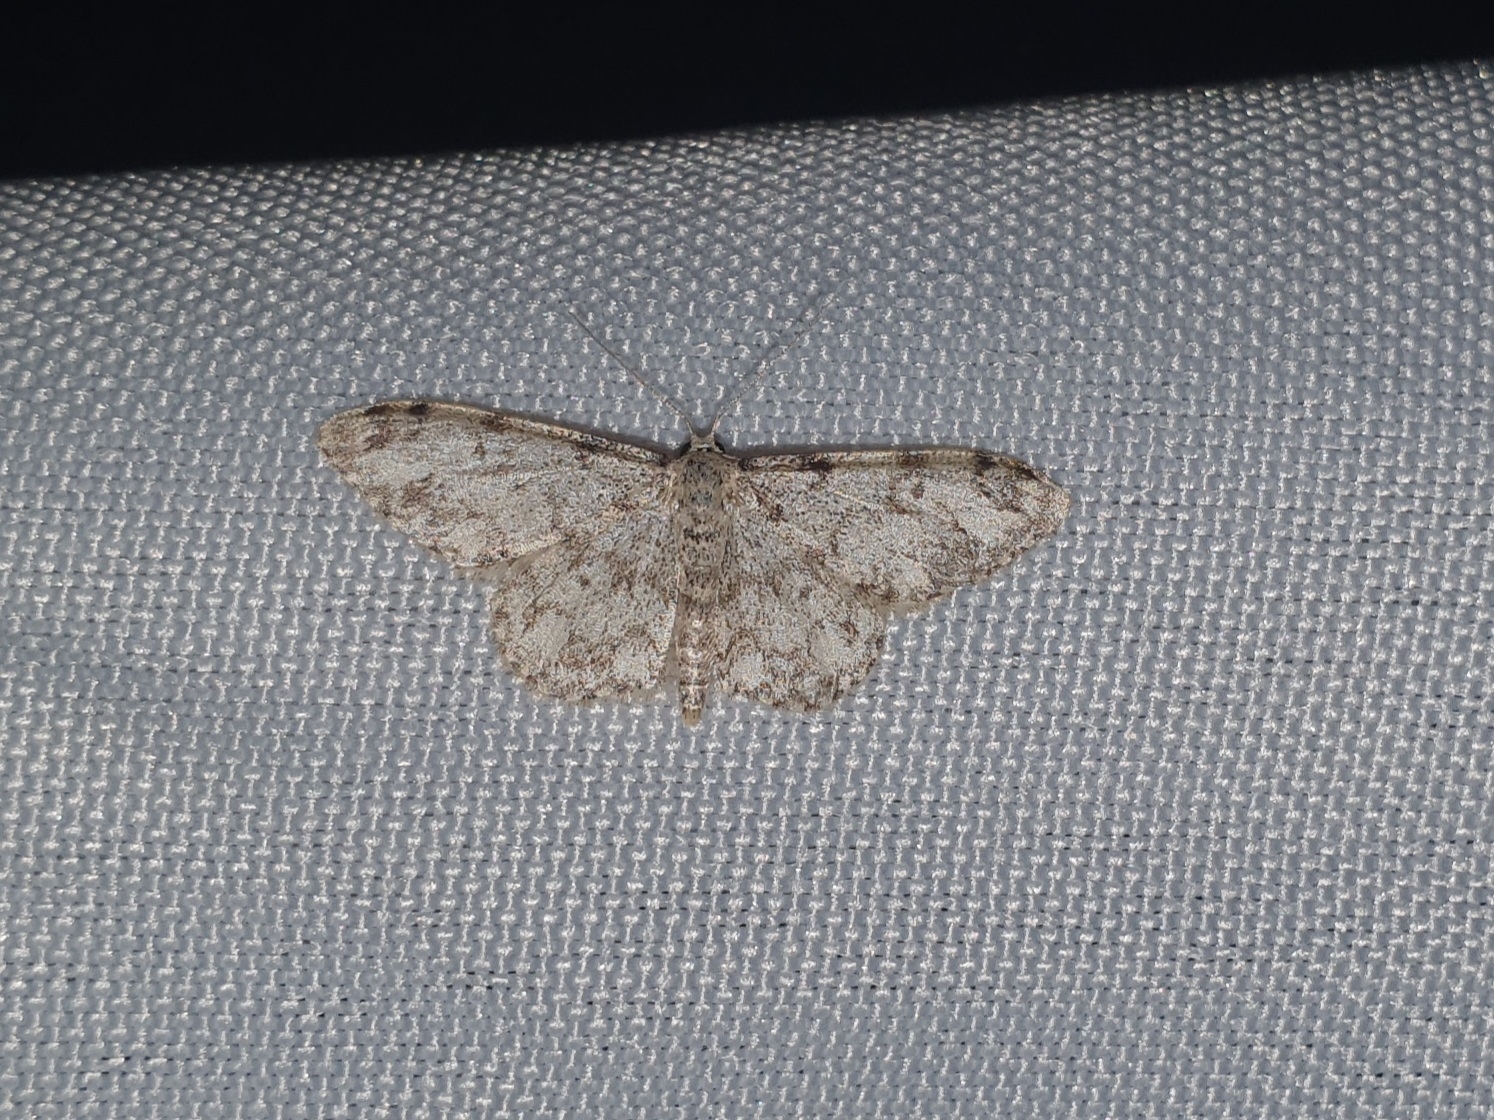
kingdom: Animalia
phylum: Arthropoda
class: Insecta
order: Lepidoptera
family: Geometridae
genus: Idaea
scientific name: Idaea contiguaria
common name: Weaver's wave
